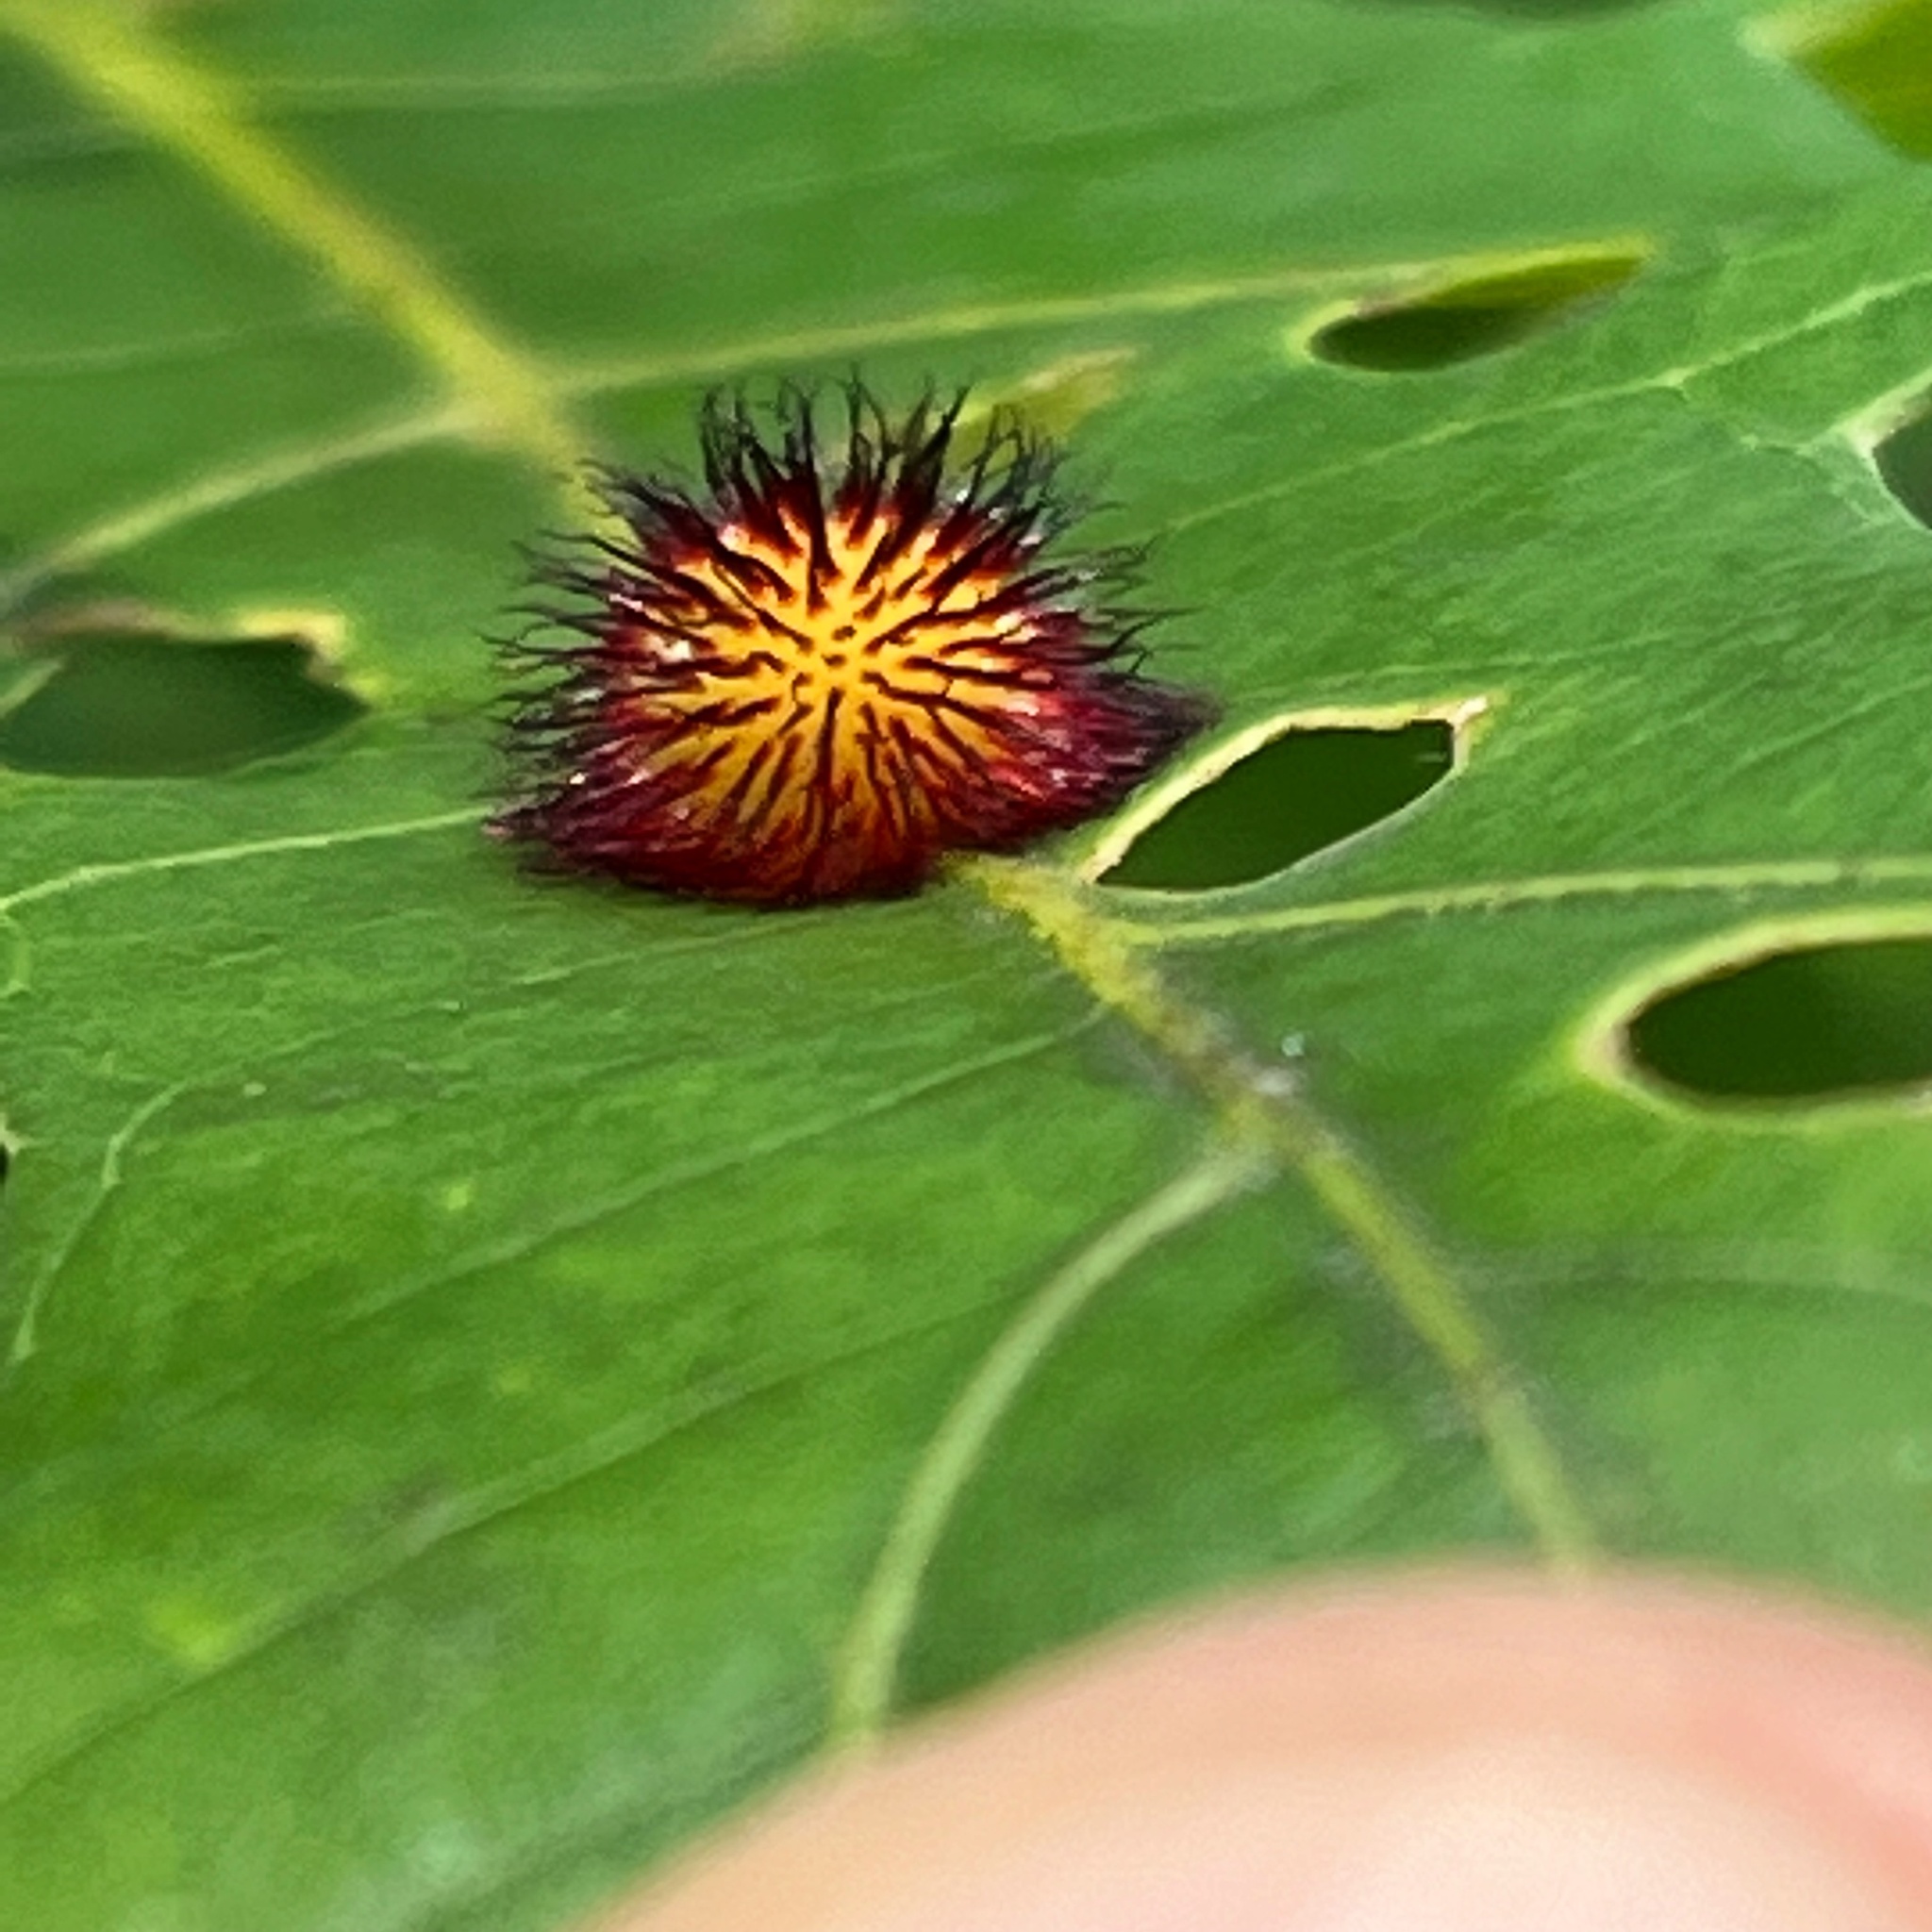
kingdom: Animalia
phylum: Arthropoda
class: Insecta
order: Hymenoptera
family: Cynipidae
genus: Acraspis
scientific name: Acraspis erinacei
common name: Hedgehog gall wasp
